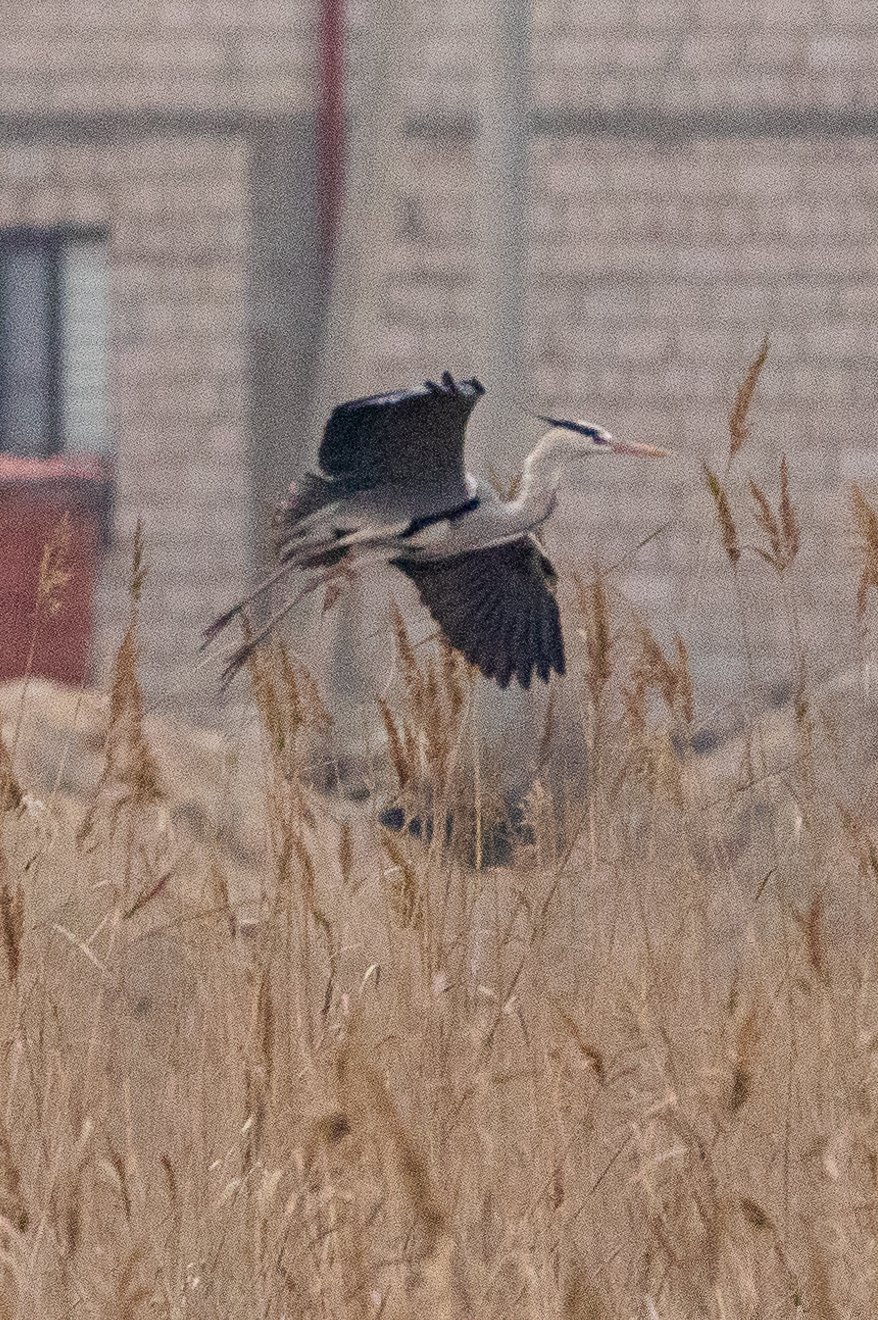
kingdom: Animalia
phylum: Chordata
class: Aves
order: Pelecaniformes
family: Ardeidae
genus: Ardea
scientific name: Ardea cinerea
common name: Grey heron
